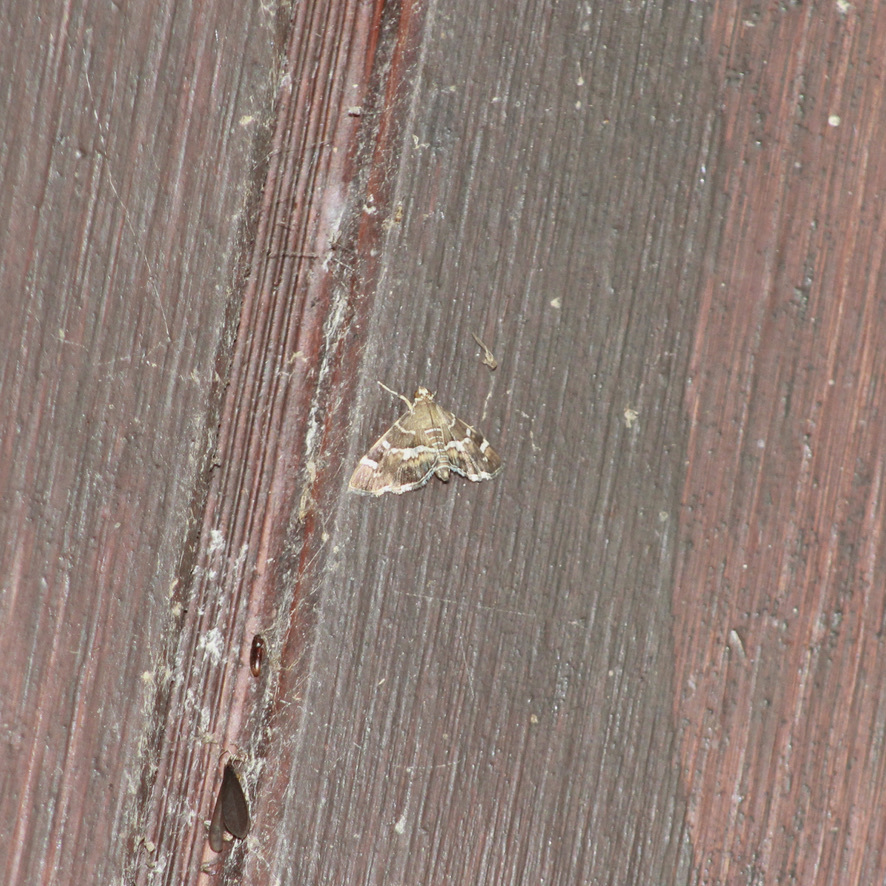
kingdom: Animalia
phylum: Arthropoda
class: Insecta
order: Lepidoptera
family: Crambidae
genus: Hymenia
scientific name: Hymenia perspectalis
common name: Spotted beet webworm
